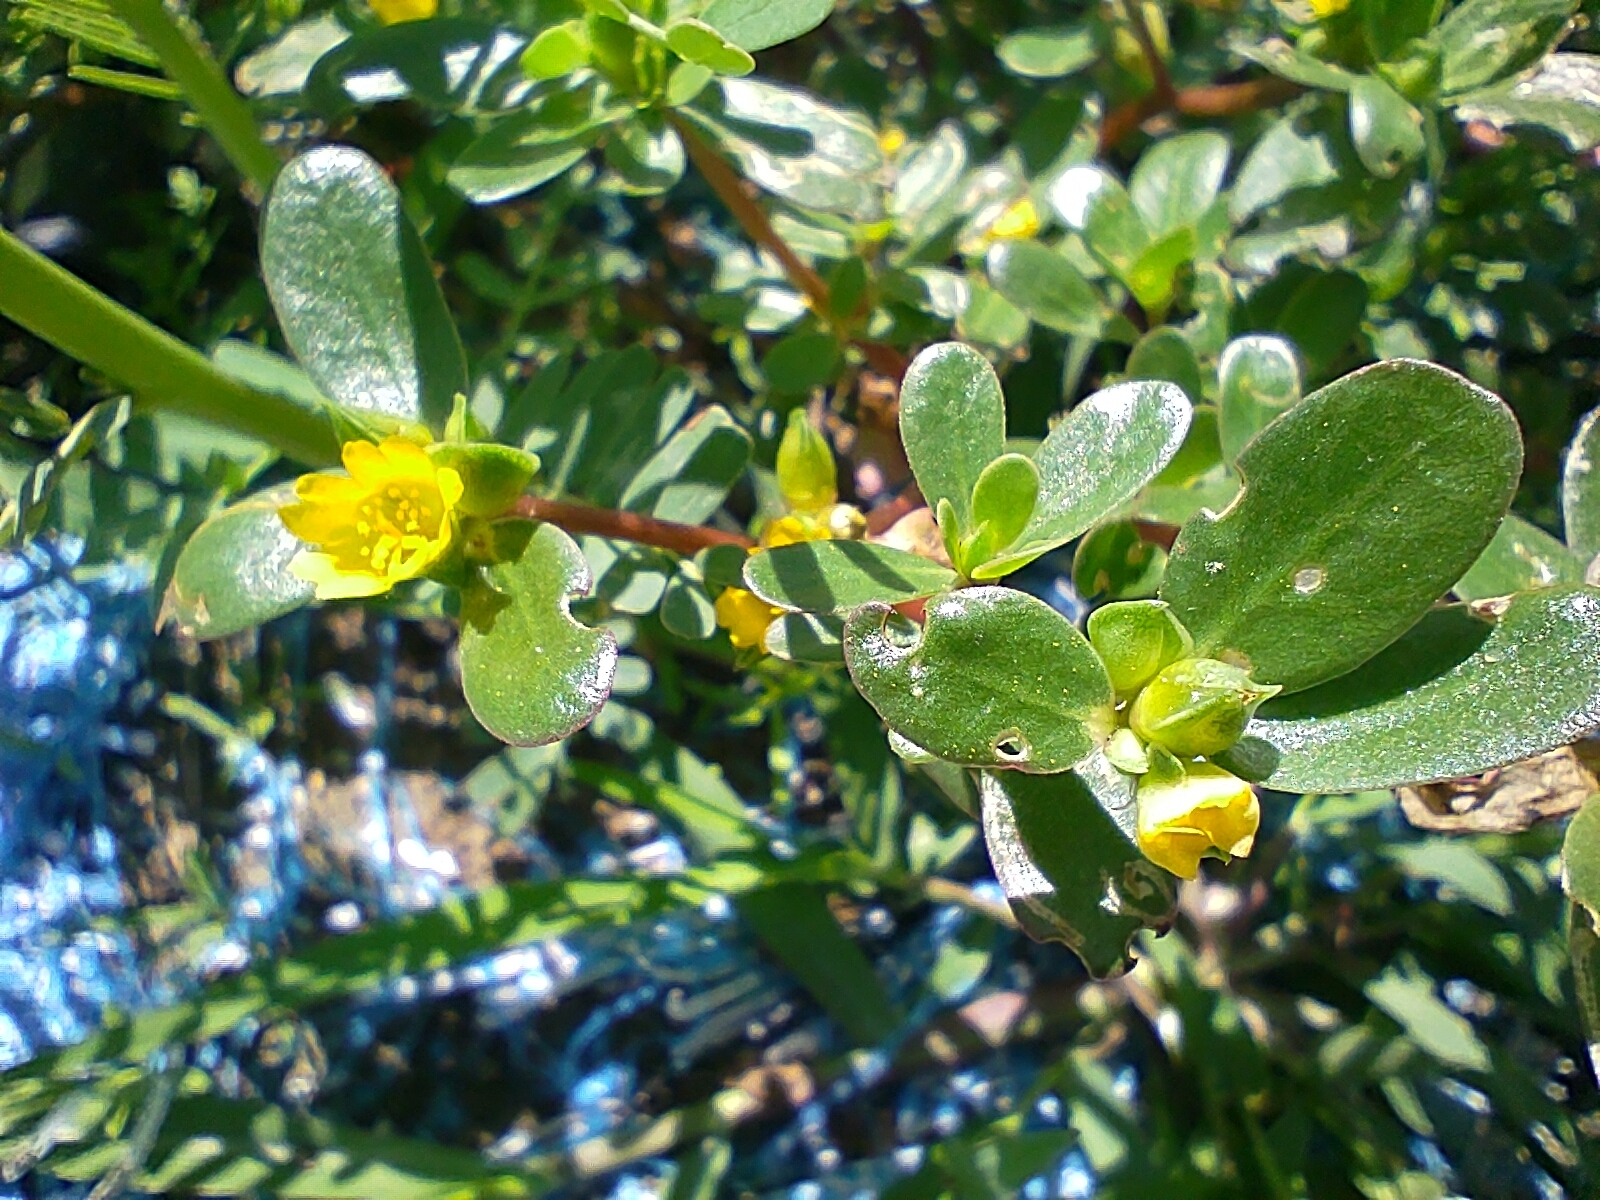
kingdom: Plantae
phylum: Tracheophyta
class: Magnoliopsida
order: Caryophyllales
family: Portulacaceae
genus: Portulaca
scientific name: Portulaca oleracea
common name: Common purslane
